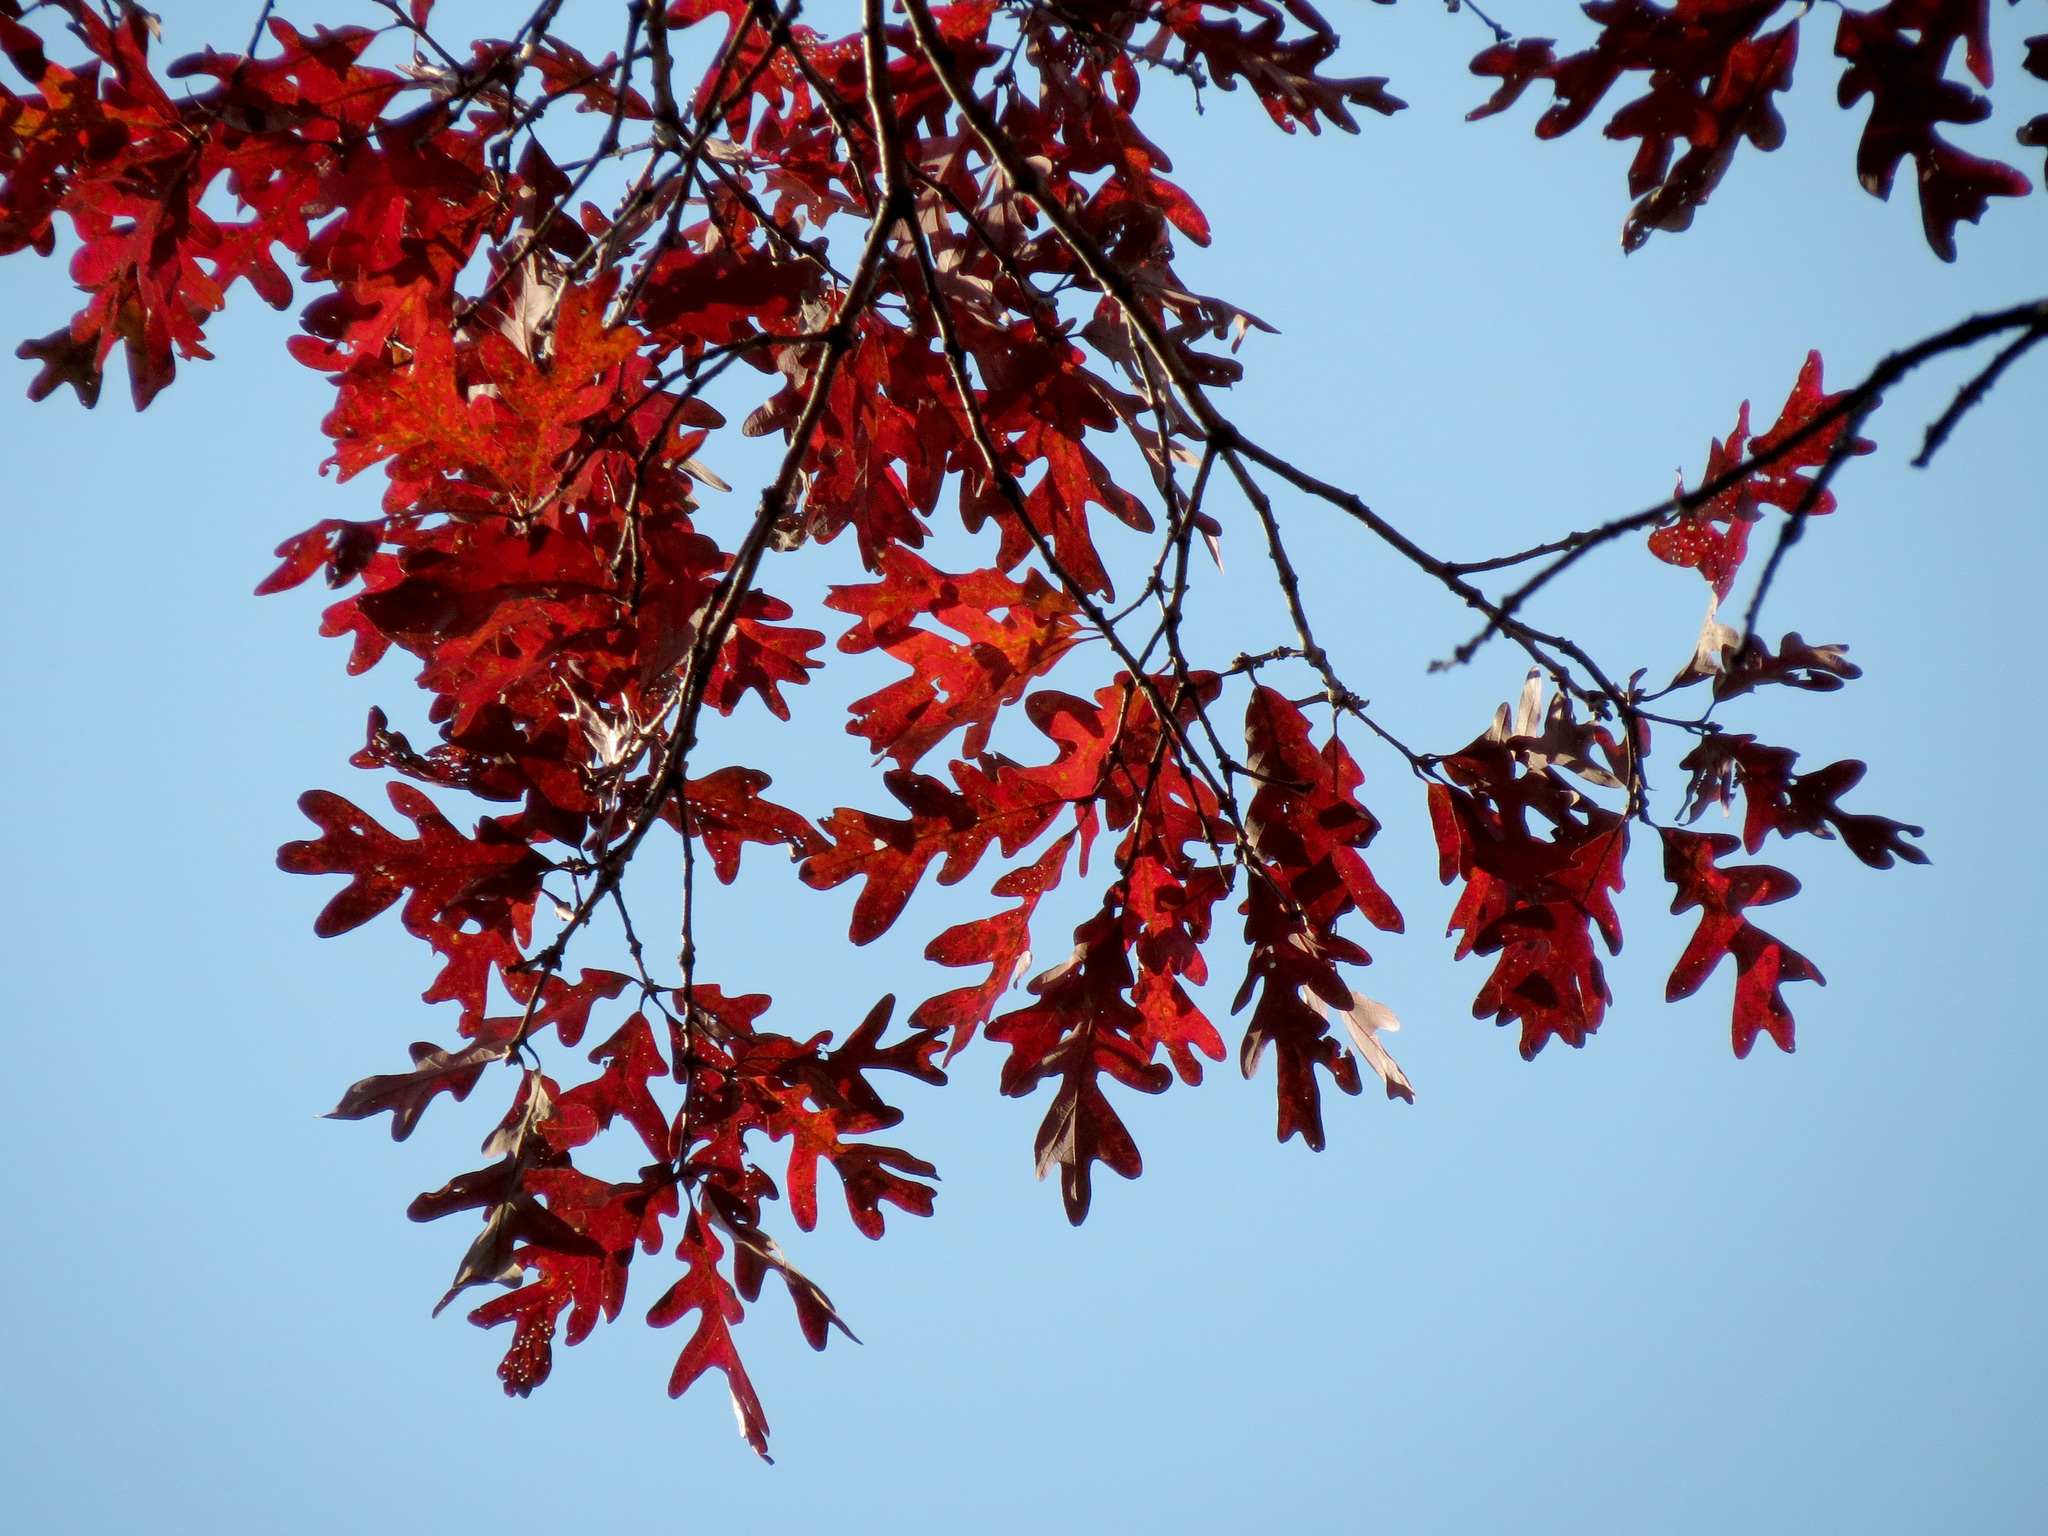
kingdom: Plantae
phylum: Tracheophyta
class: Magnoliopsida
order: Fagales
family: Fagaceae
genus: Quercus
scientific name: Quercus alba
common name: White oak
